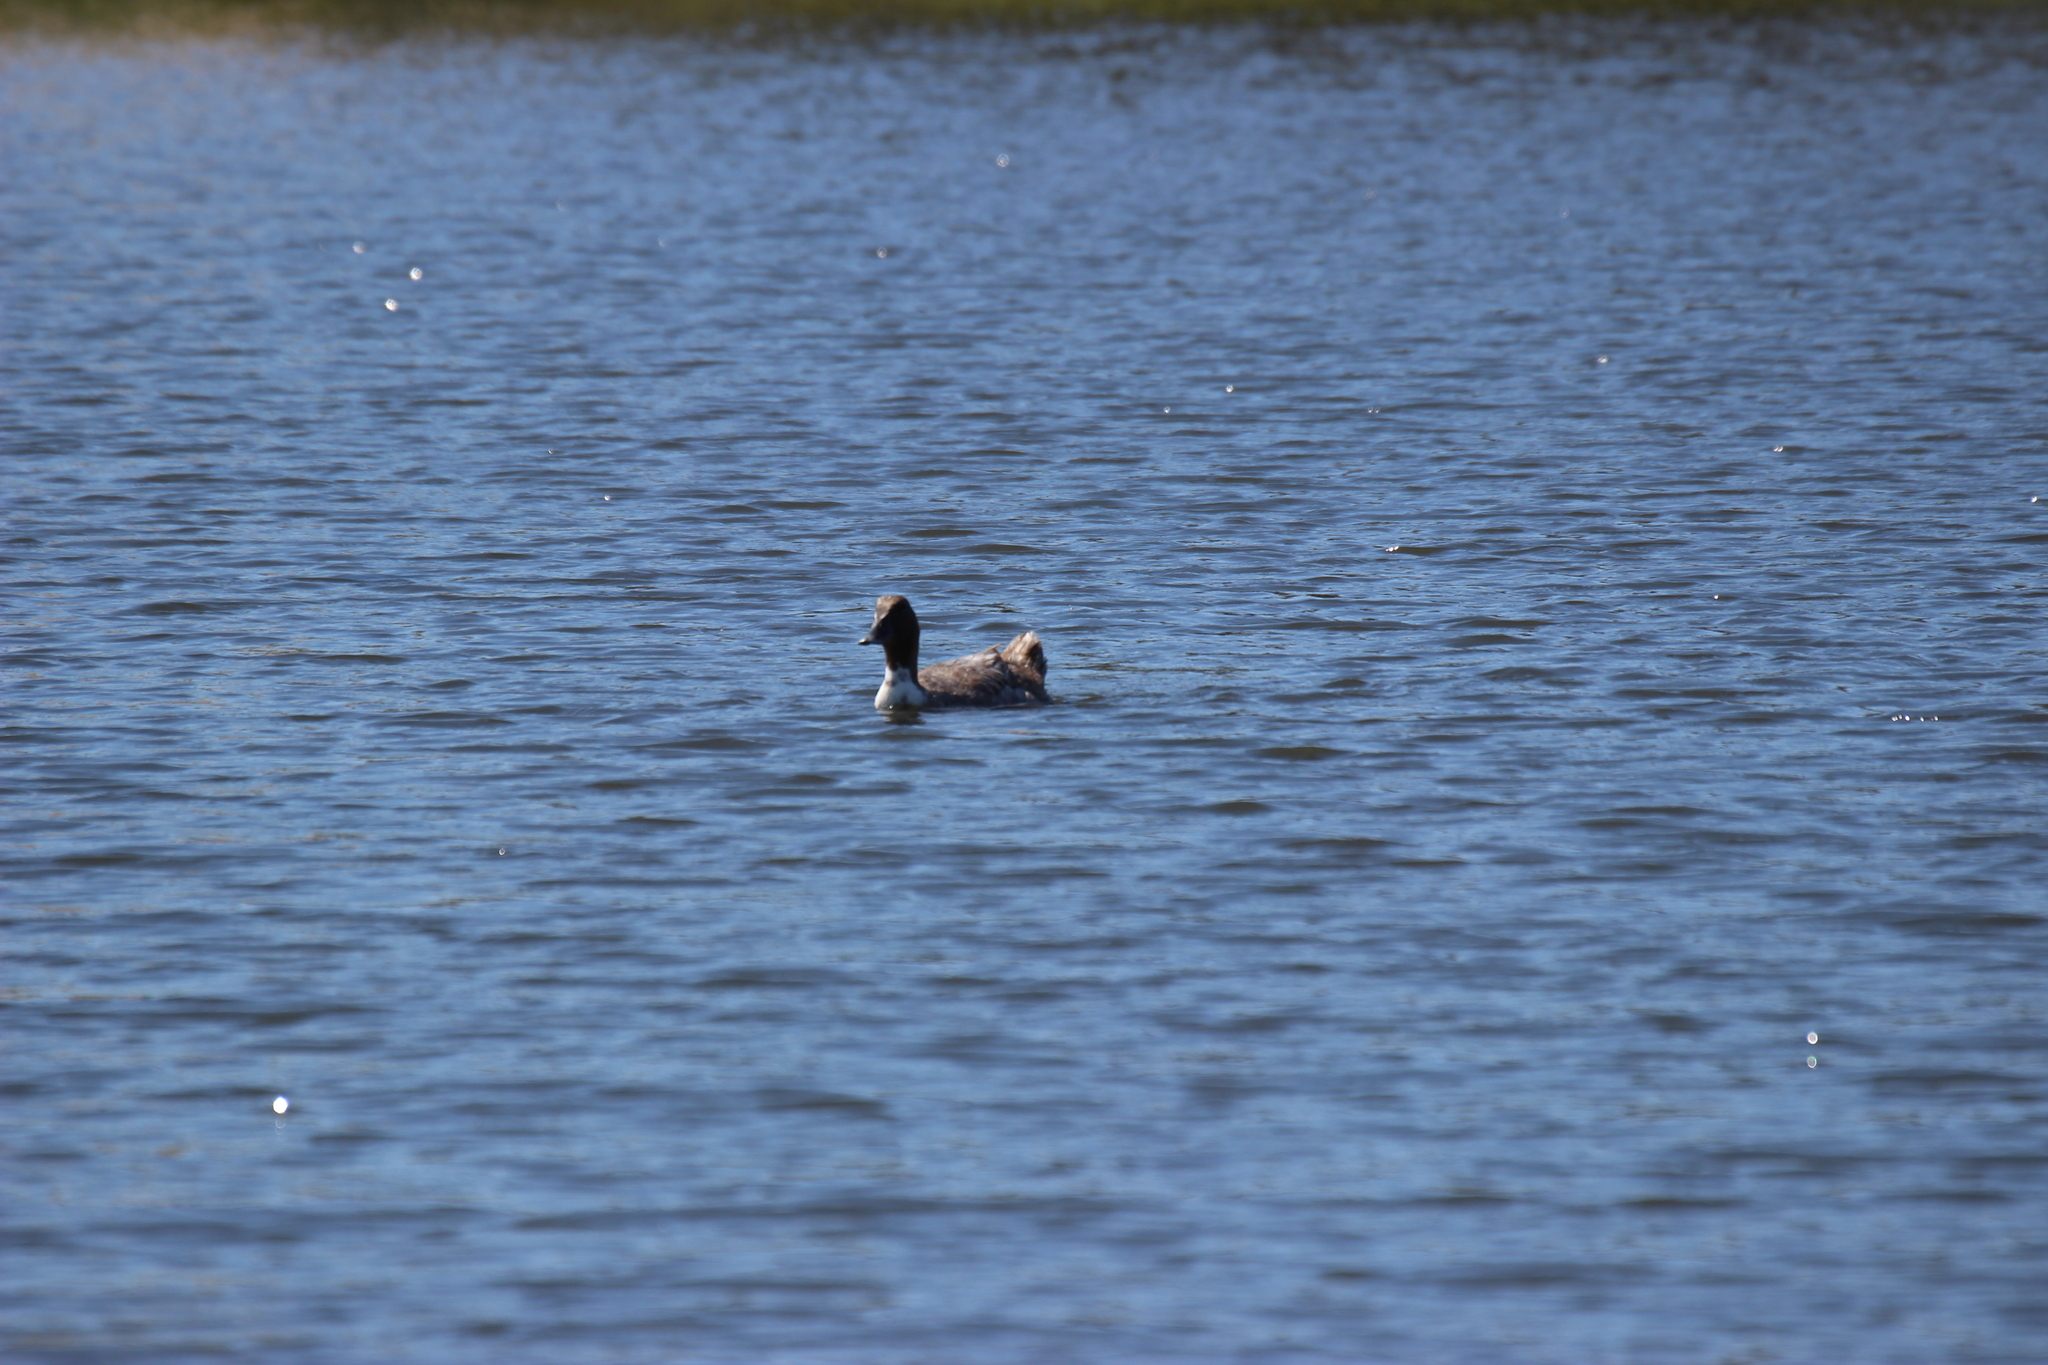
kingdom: Animalia
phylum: Chordata
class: Aves
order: Anseriformes
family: Anatidae
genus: Anas
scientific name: Anas platyrhynchos
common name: Mallard
